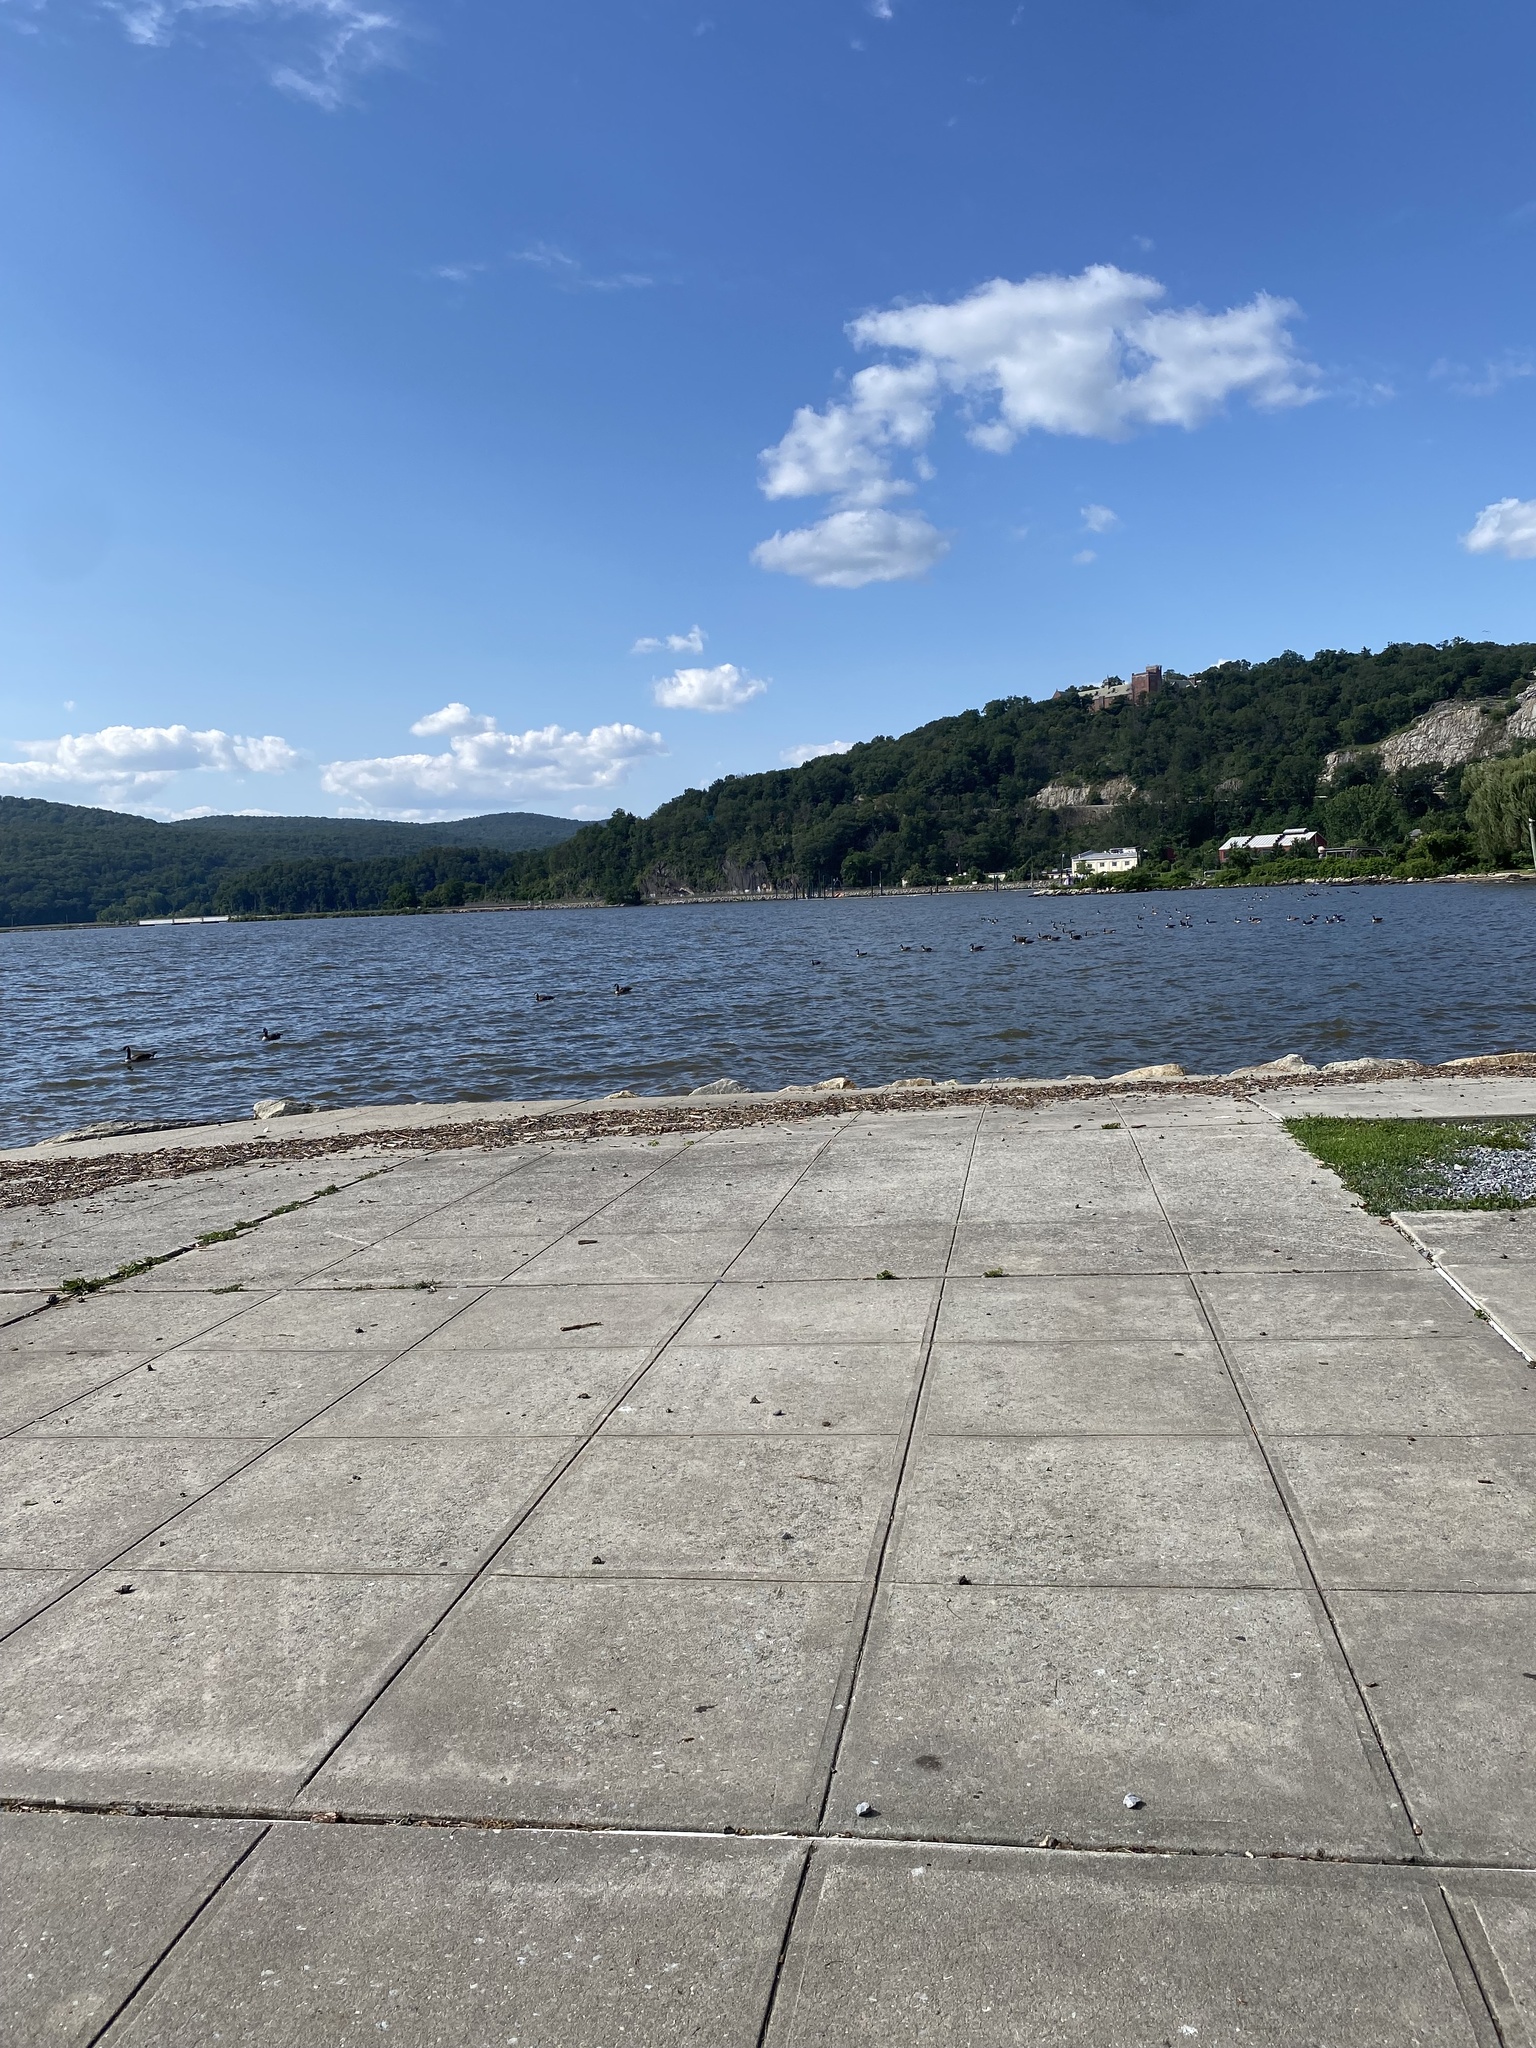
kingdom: Animalia
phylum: Chordata
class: Aves
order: Anseriformes
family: Anatidae
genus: Branta
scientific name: Branta canadensis
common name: Canada goose
